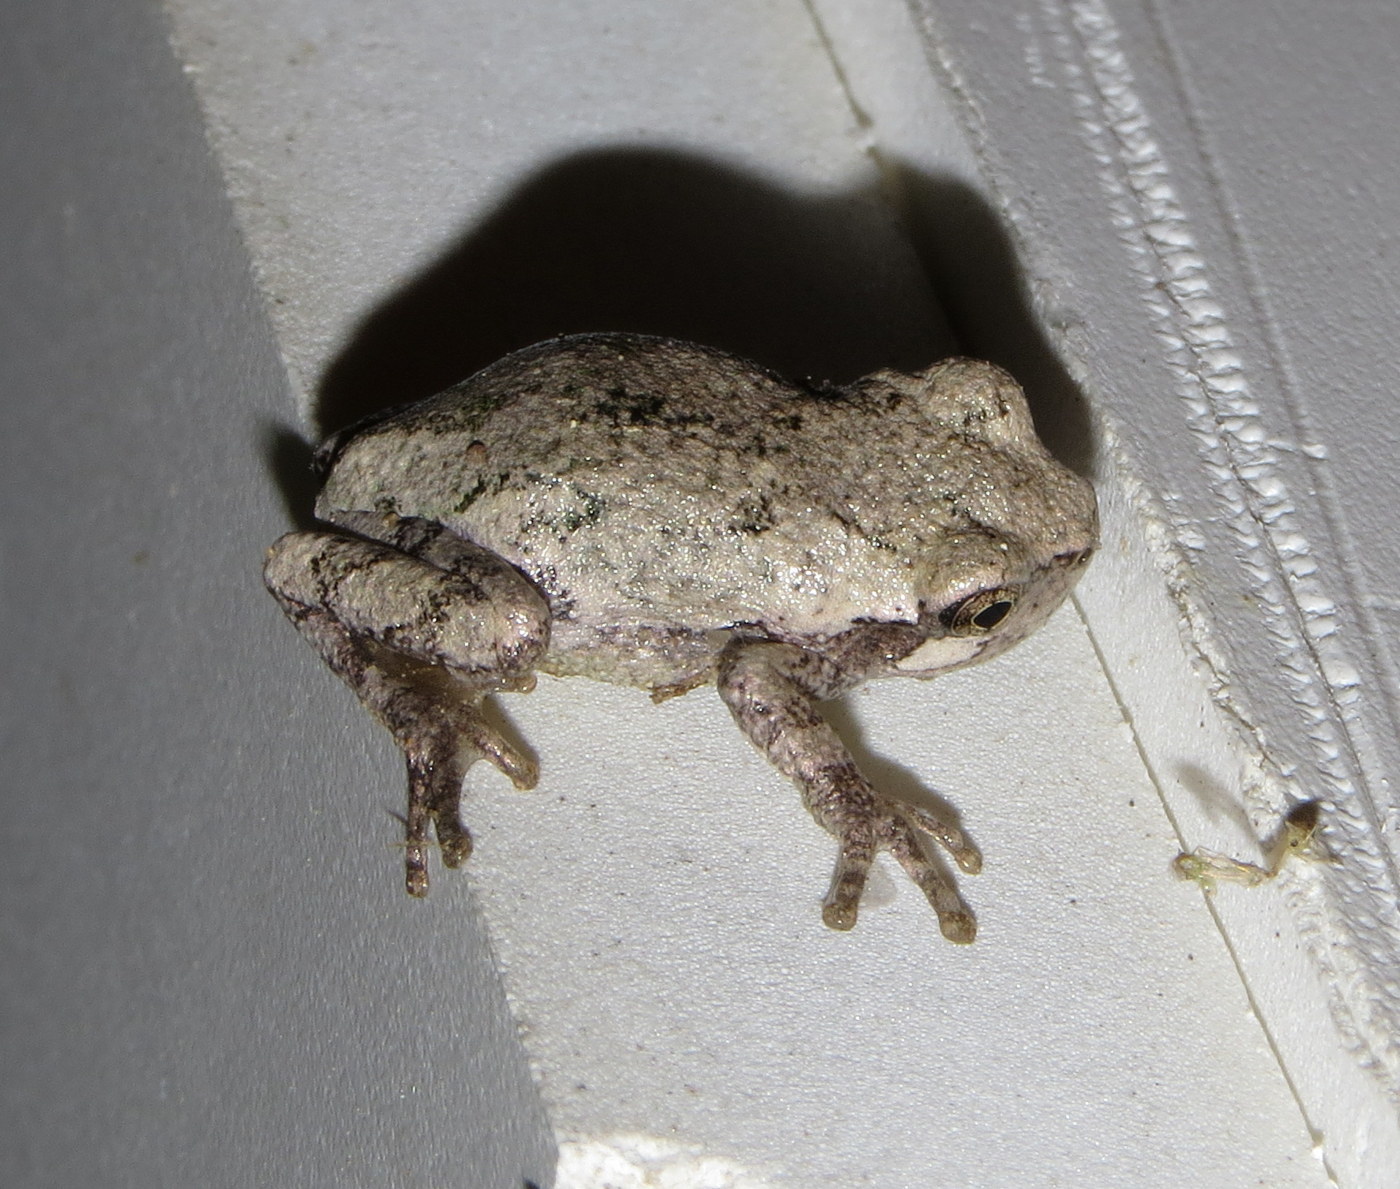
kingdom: Animalia
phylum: Chordata
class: Amphibia
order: Anura
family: Hylidae
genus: Dryophytes
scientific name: Dryophytes versicolor
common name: Gray treefrog
